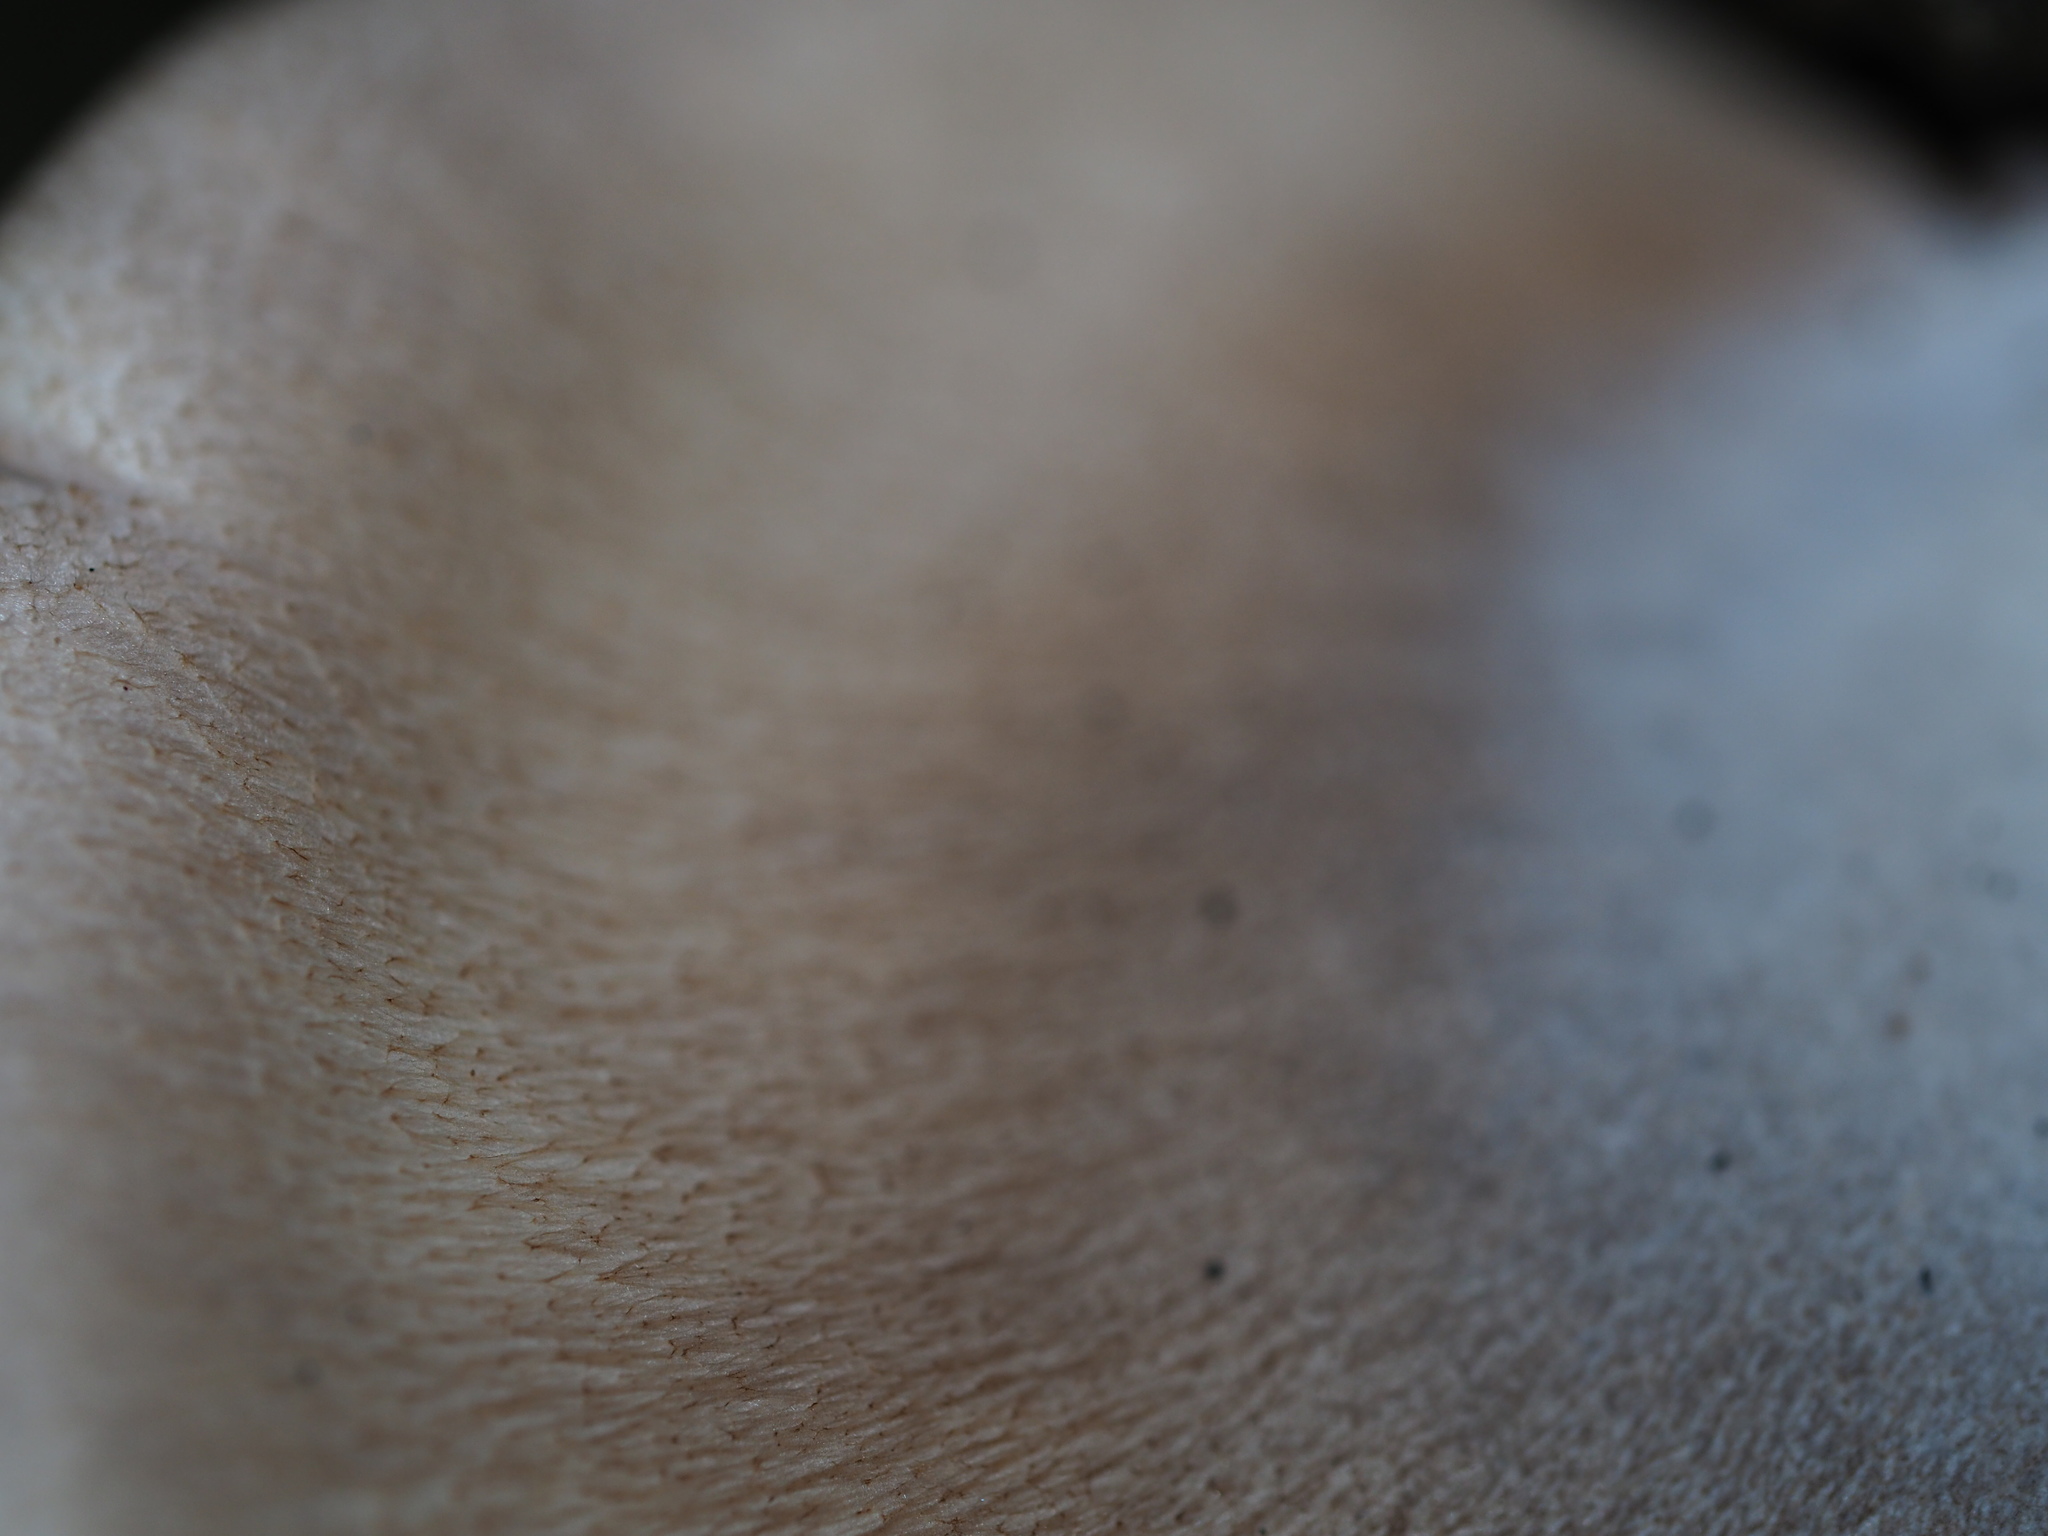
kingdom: Fungi
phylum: Basidiomycota
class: Agaricomycetes
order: Agaricales
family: Pleurotaceae
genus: Pleurotus
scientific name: Pleurotus parsonsiae
